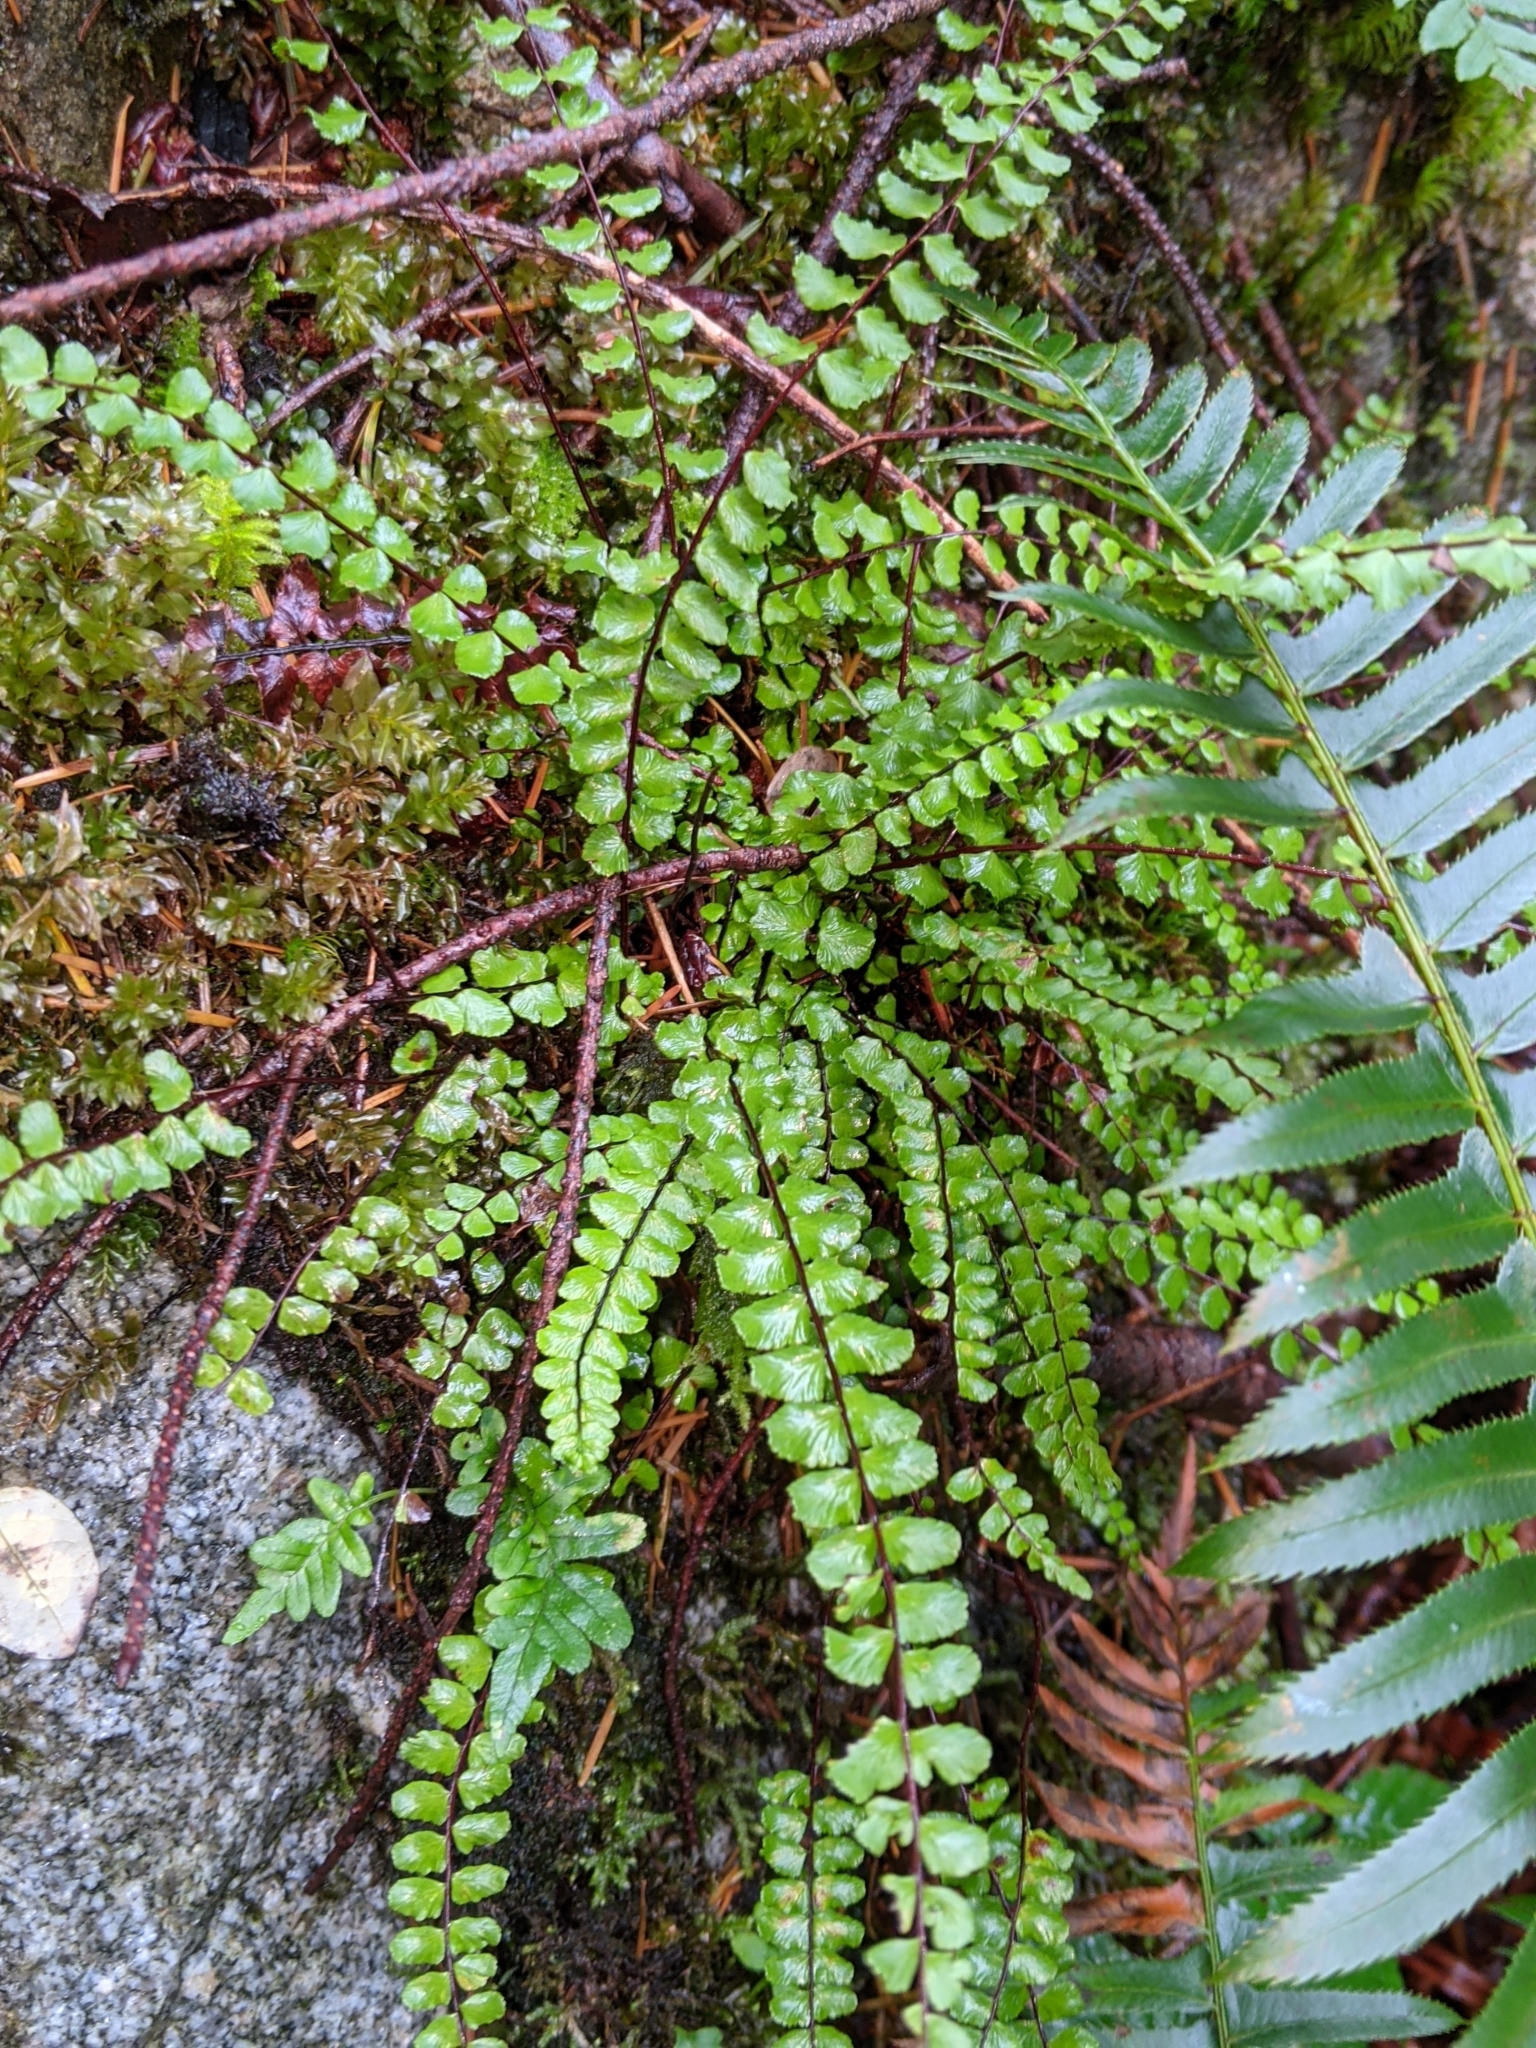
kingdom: Plantae
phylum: Tracheophyta
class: Polypodiopsida
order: Polypodiales
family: Aspleniaceae
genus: Asplenium
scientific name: Asplenium trichomanes
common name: Maidenhair spleenwort
